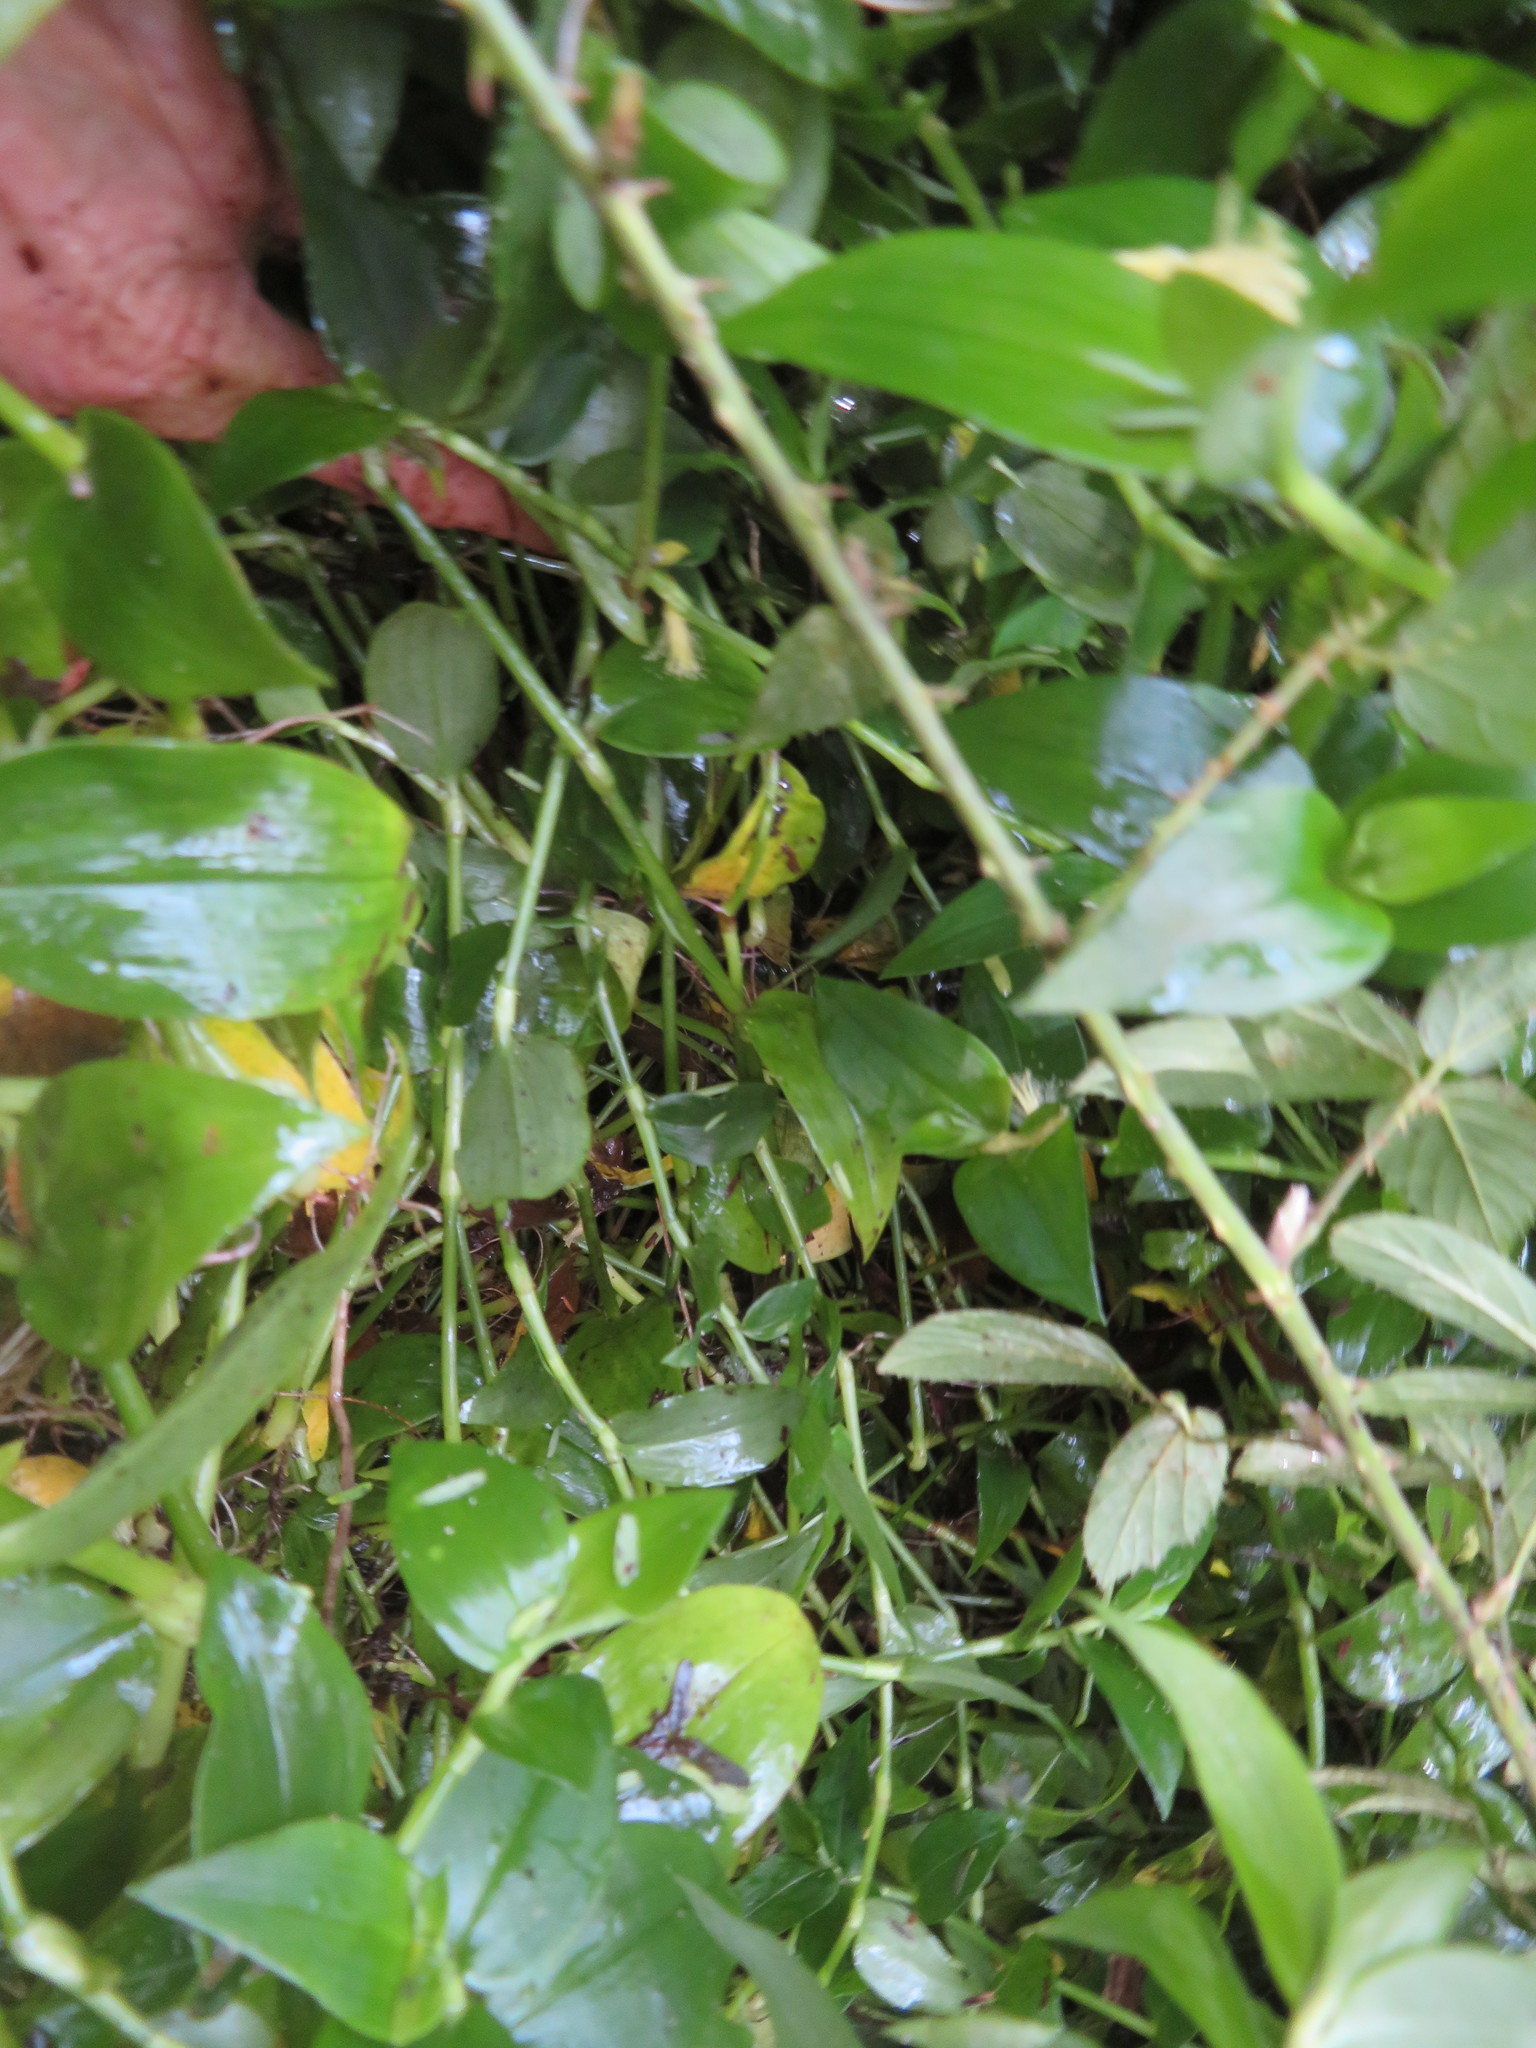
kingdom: Plantae
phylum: Tracheophyta
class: Liliopsida
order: Commelinales
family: Commelinaceae
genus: Tradescantia
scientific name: Tradescantia fluminensis
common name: Wandering-jew
